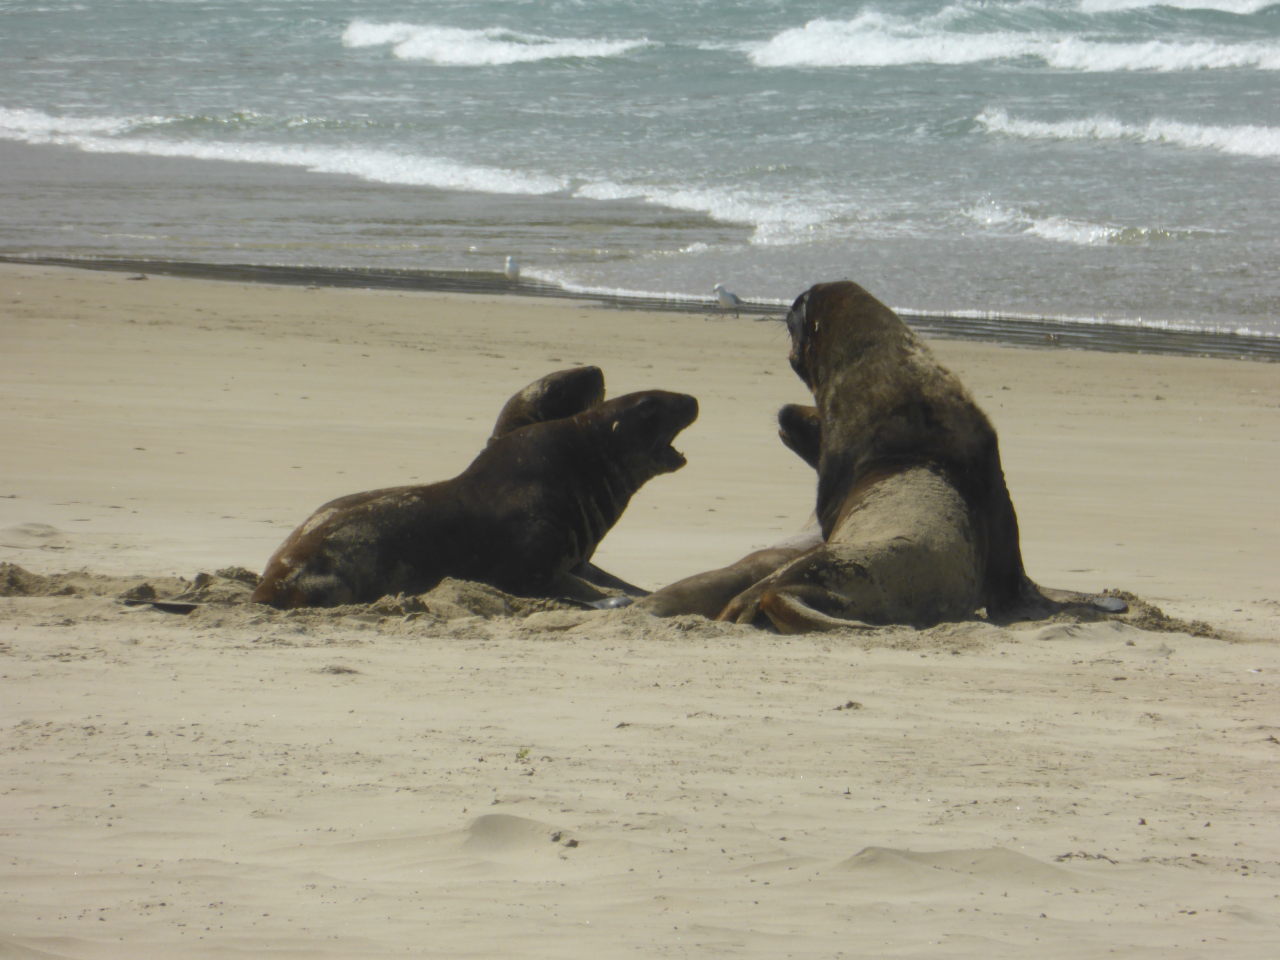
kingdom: Animalia
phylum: Chordata
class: Mammalia
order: Carnivora
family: Otariidae
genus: Phocarctos
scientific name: Phocarctos hookeri
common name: New zealand sea lion
